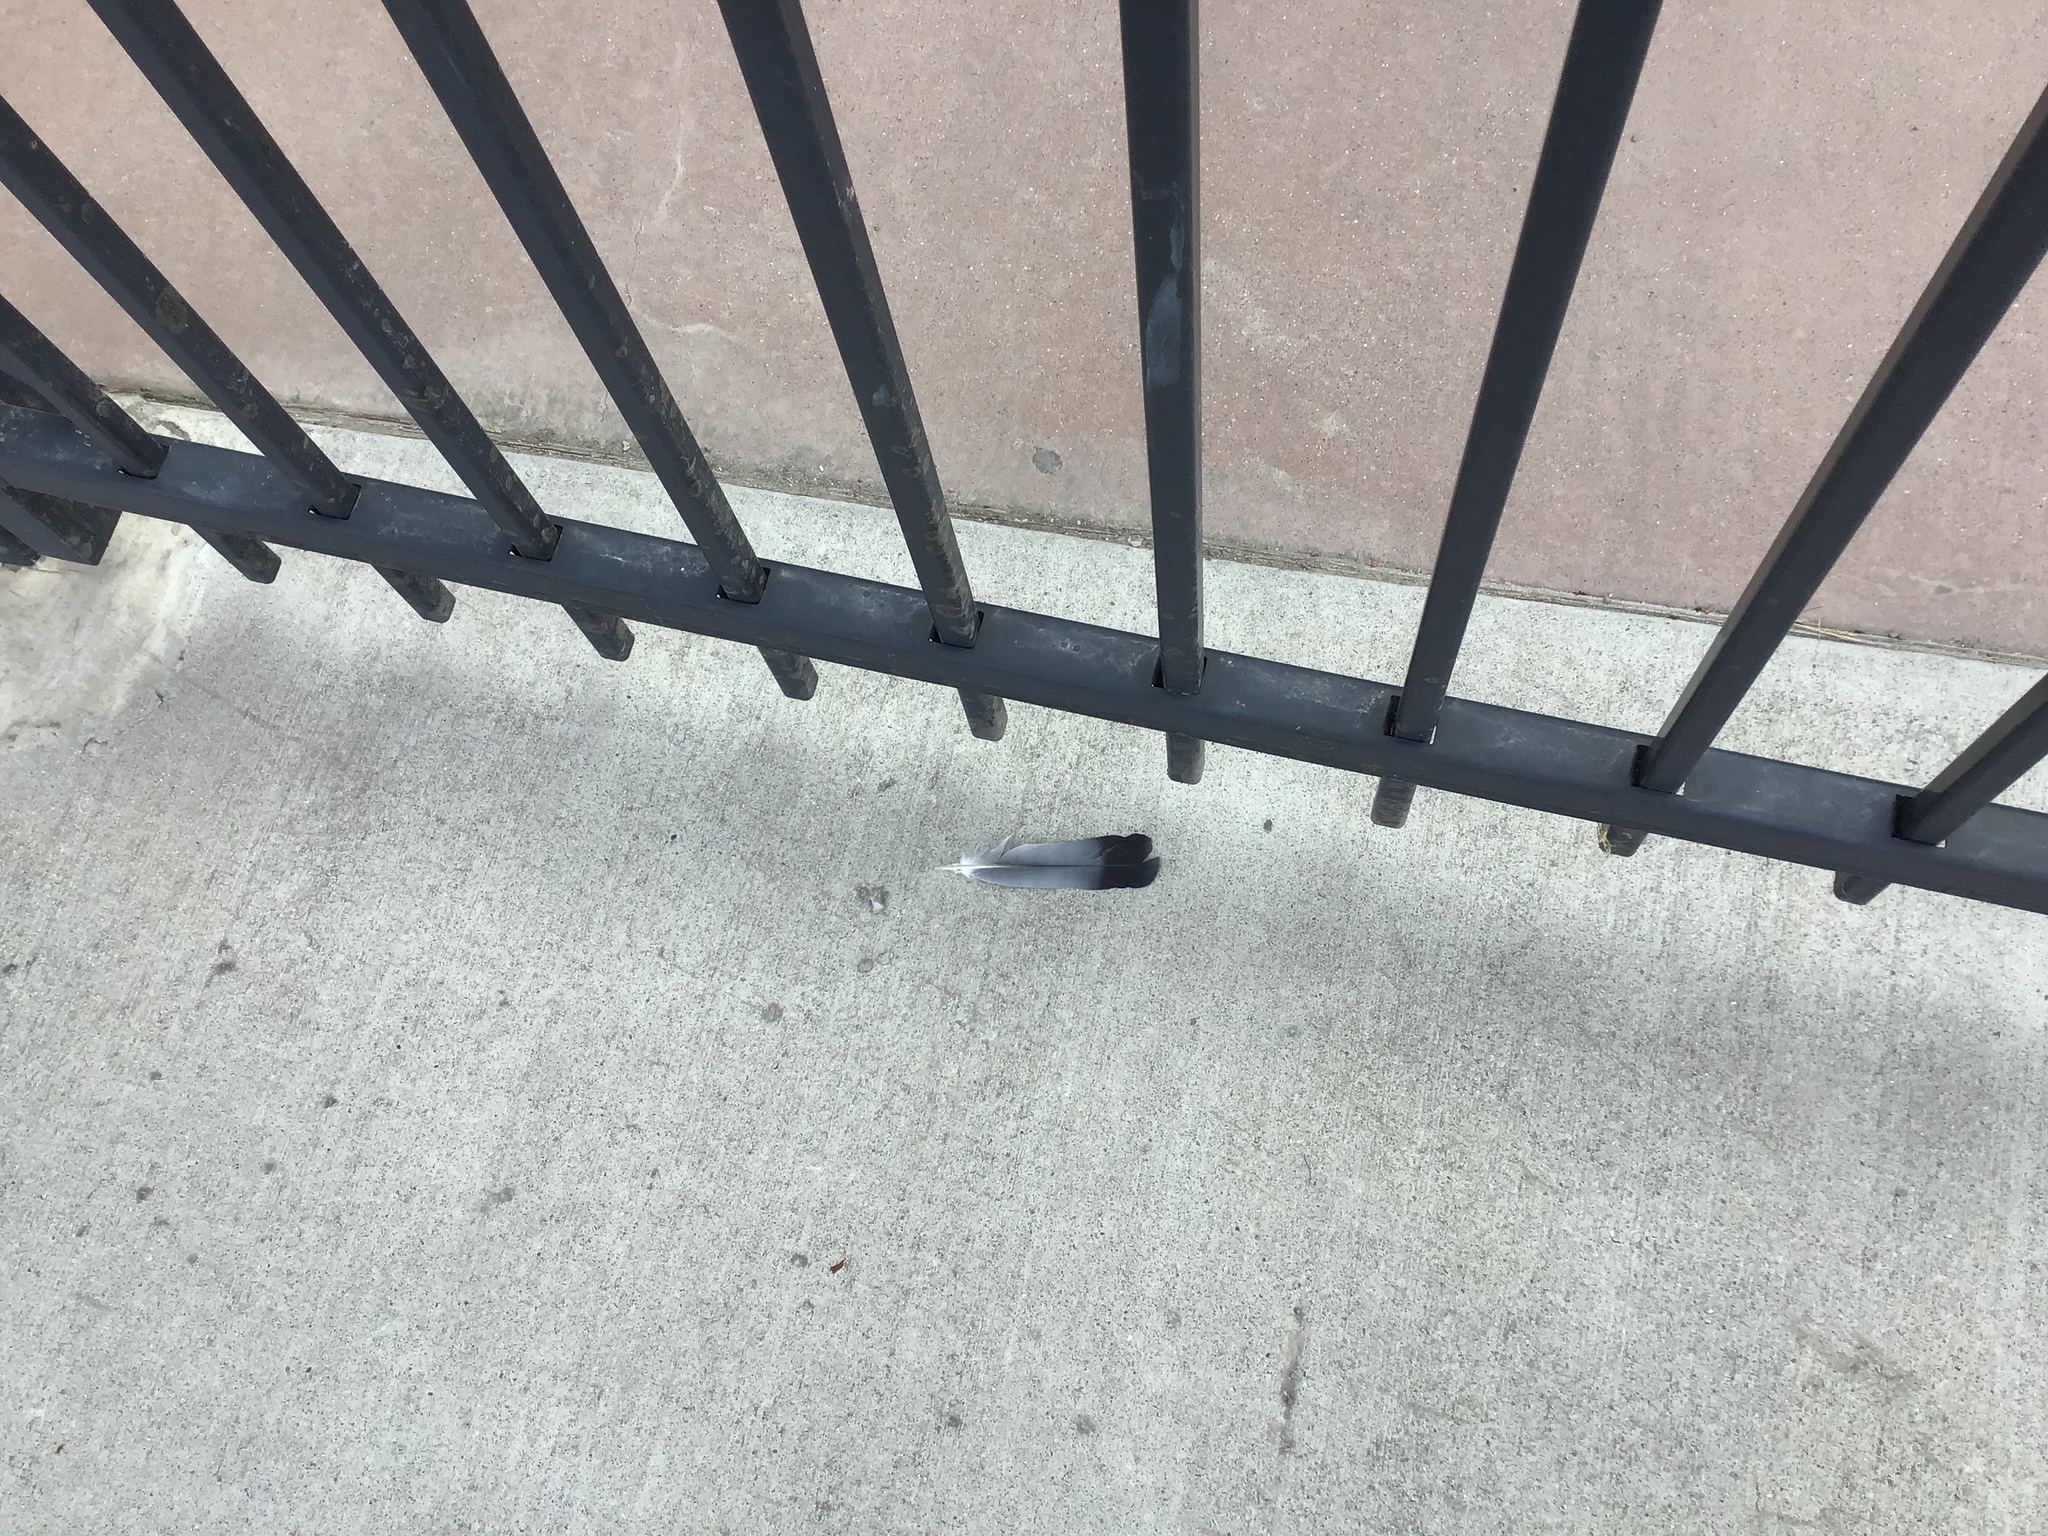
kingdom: Animalia
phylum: Chordata
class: Aves
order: Columbiformes
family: Columbidae
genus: Columba
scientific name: Columba livia
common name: Rock pigeon
